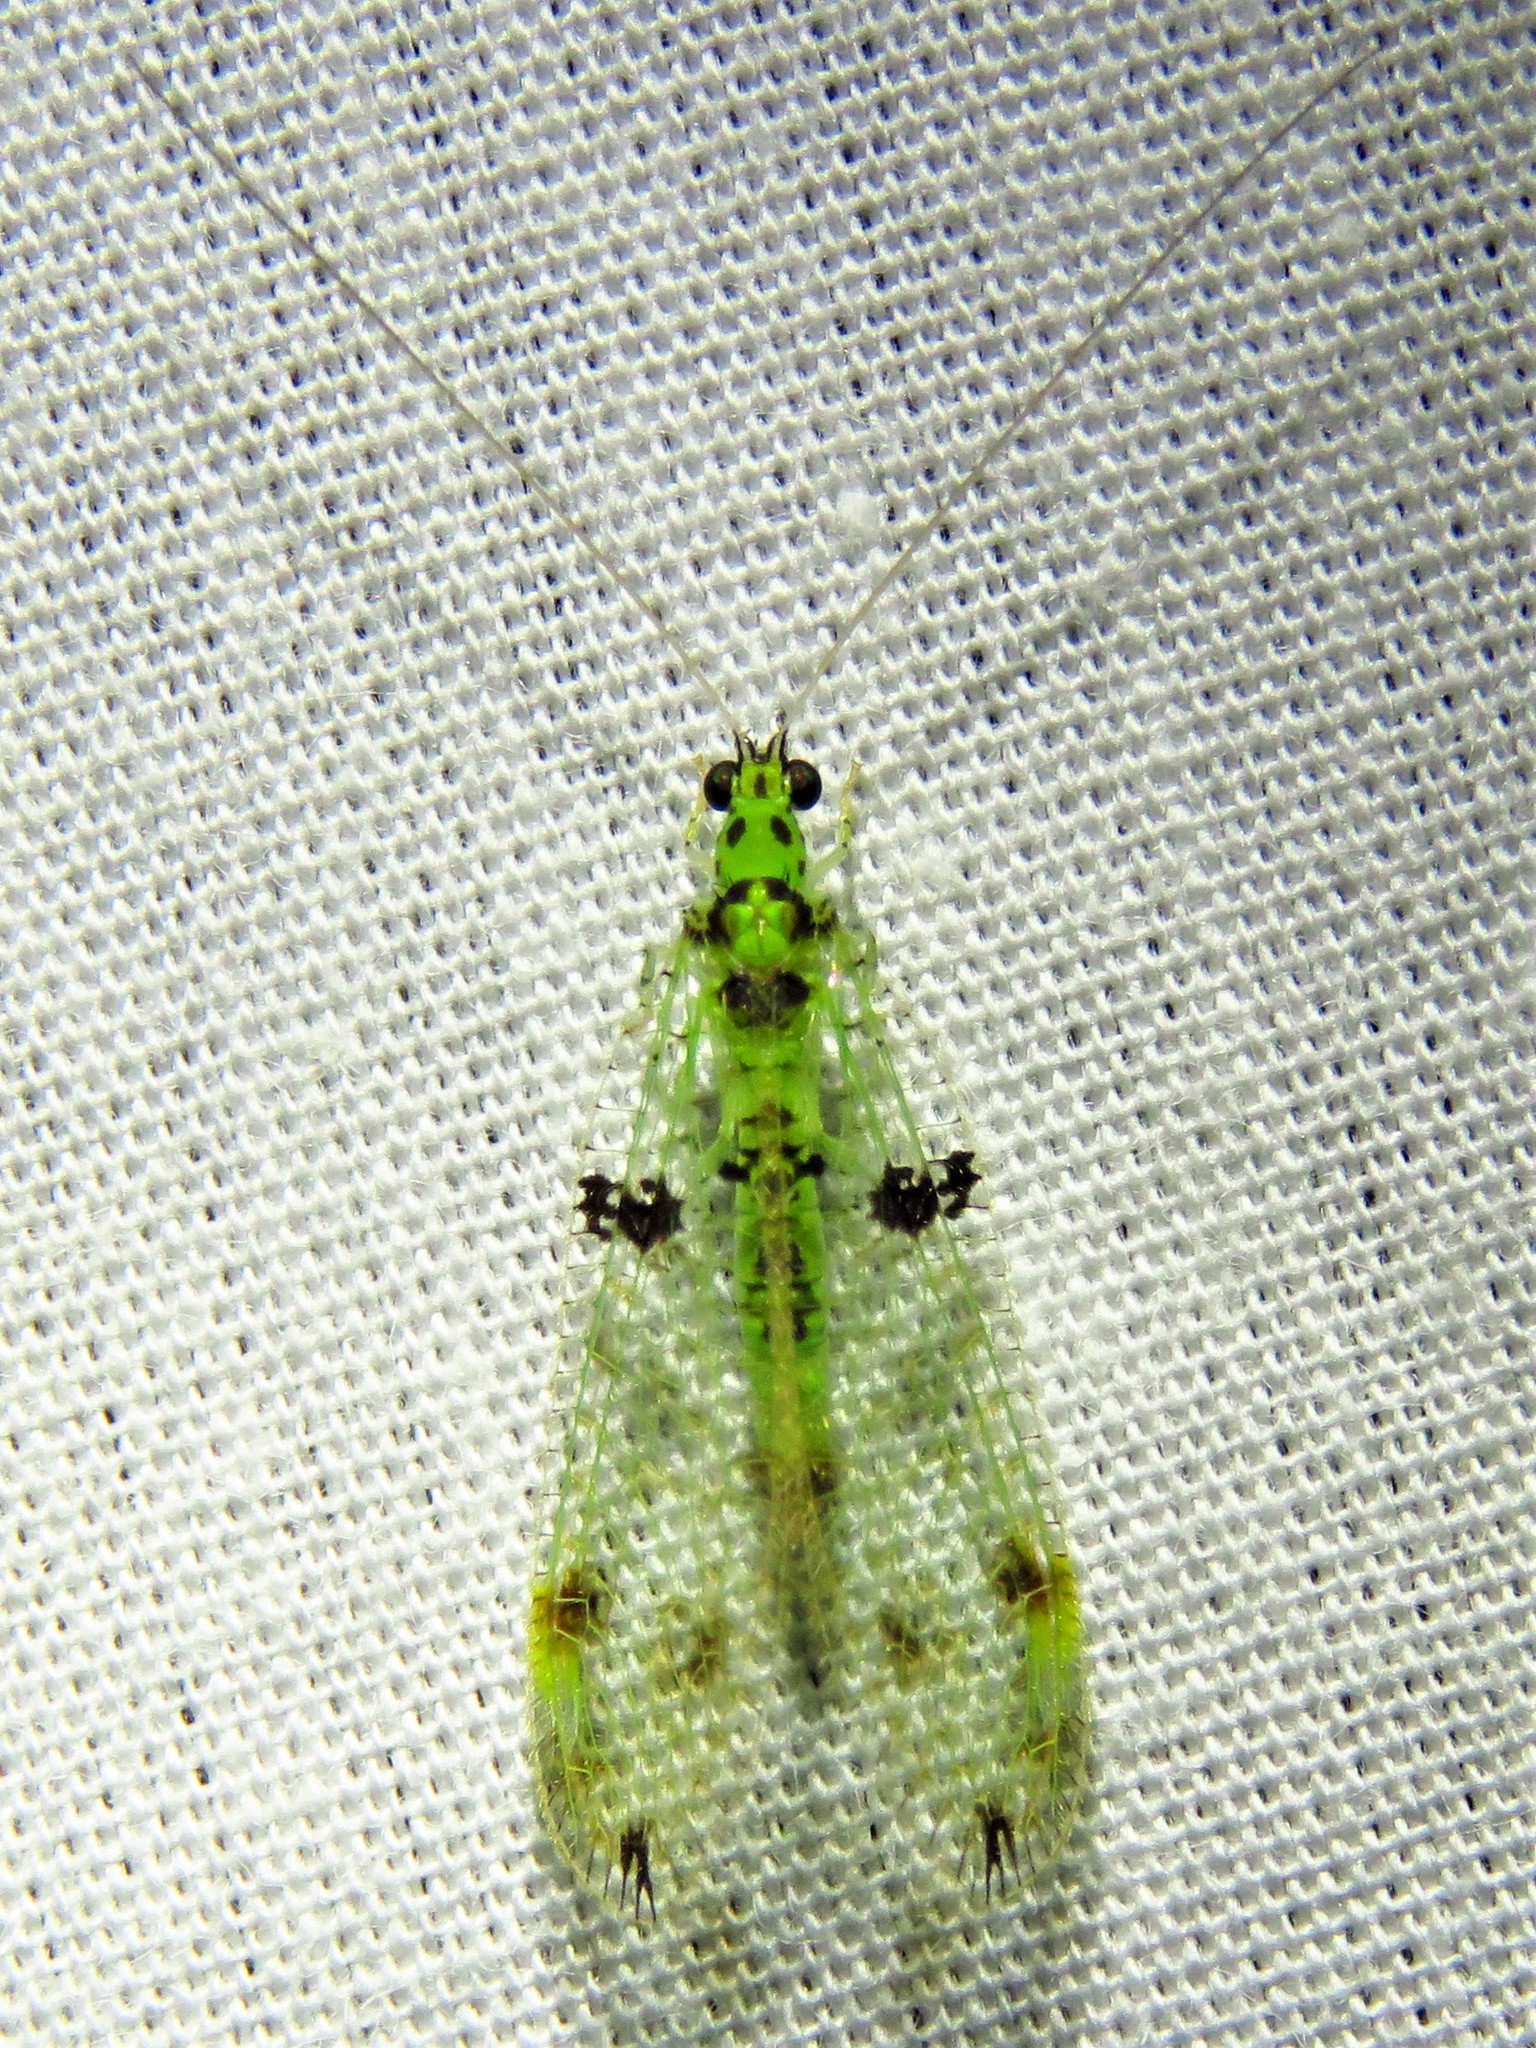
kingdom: Animalia
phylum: Arthropoda
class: Insecta
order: Neuroptera
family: Chrysopidae
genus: Glenochrysa
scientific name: Glenochrysa principissa
